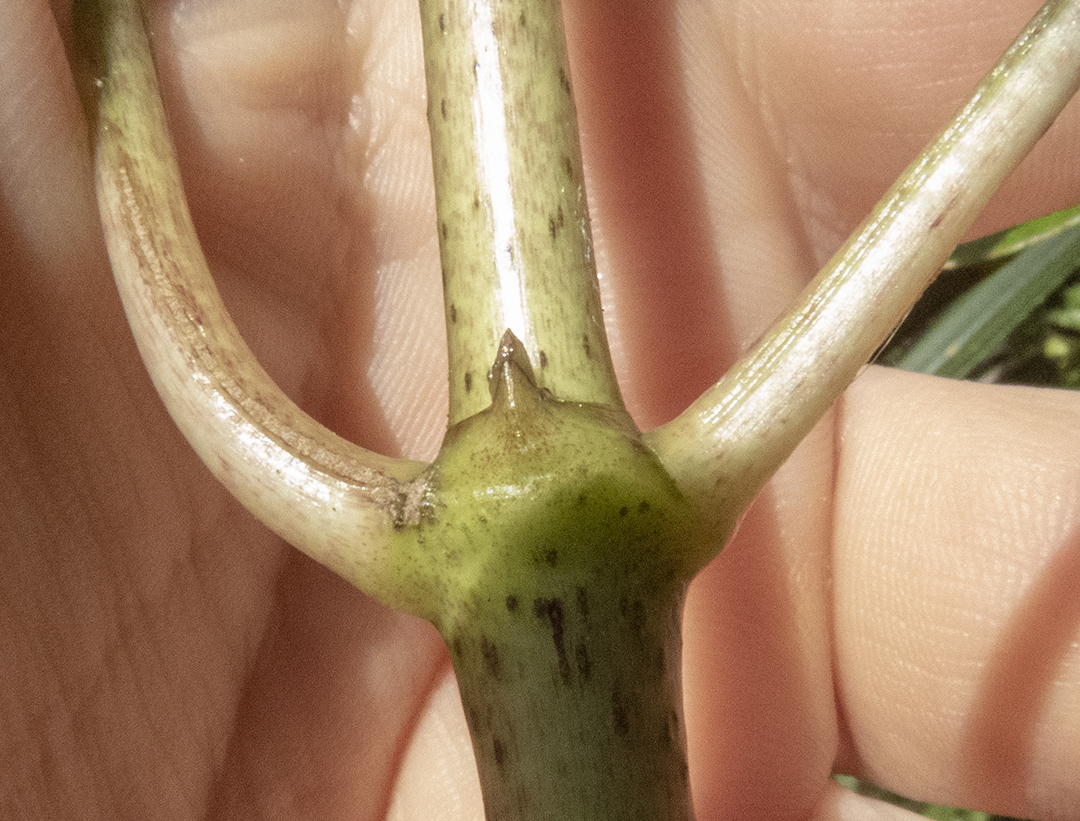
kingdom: Plantae
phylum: Tracheophyta
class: Magnoliopsida
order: Gentianales
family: Rubiaceae
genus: Coprosma
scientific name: Coprosma autumnalis
